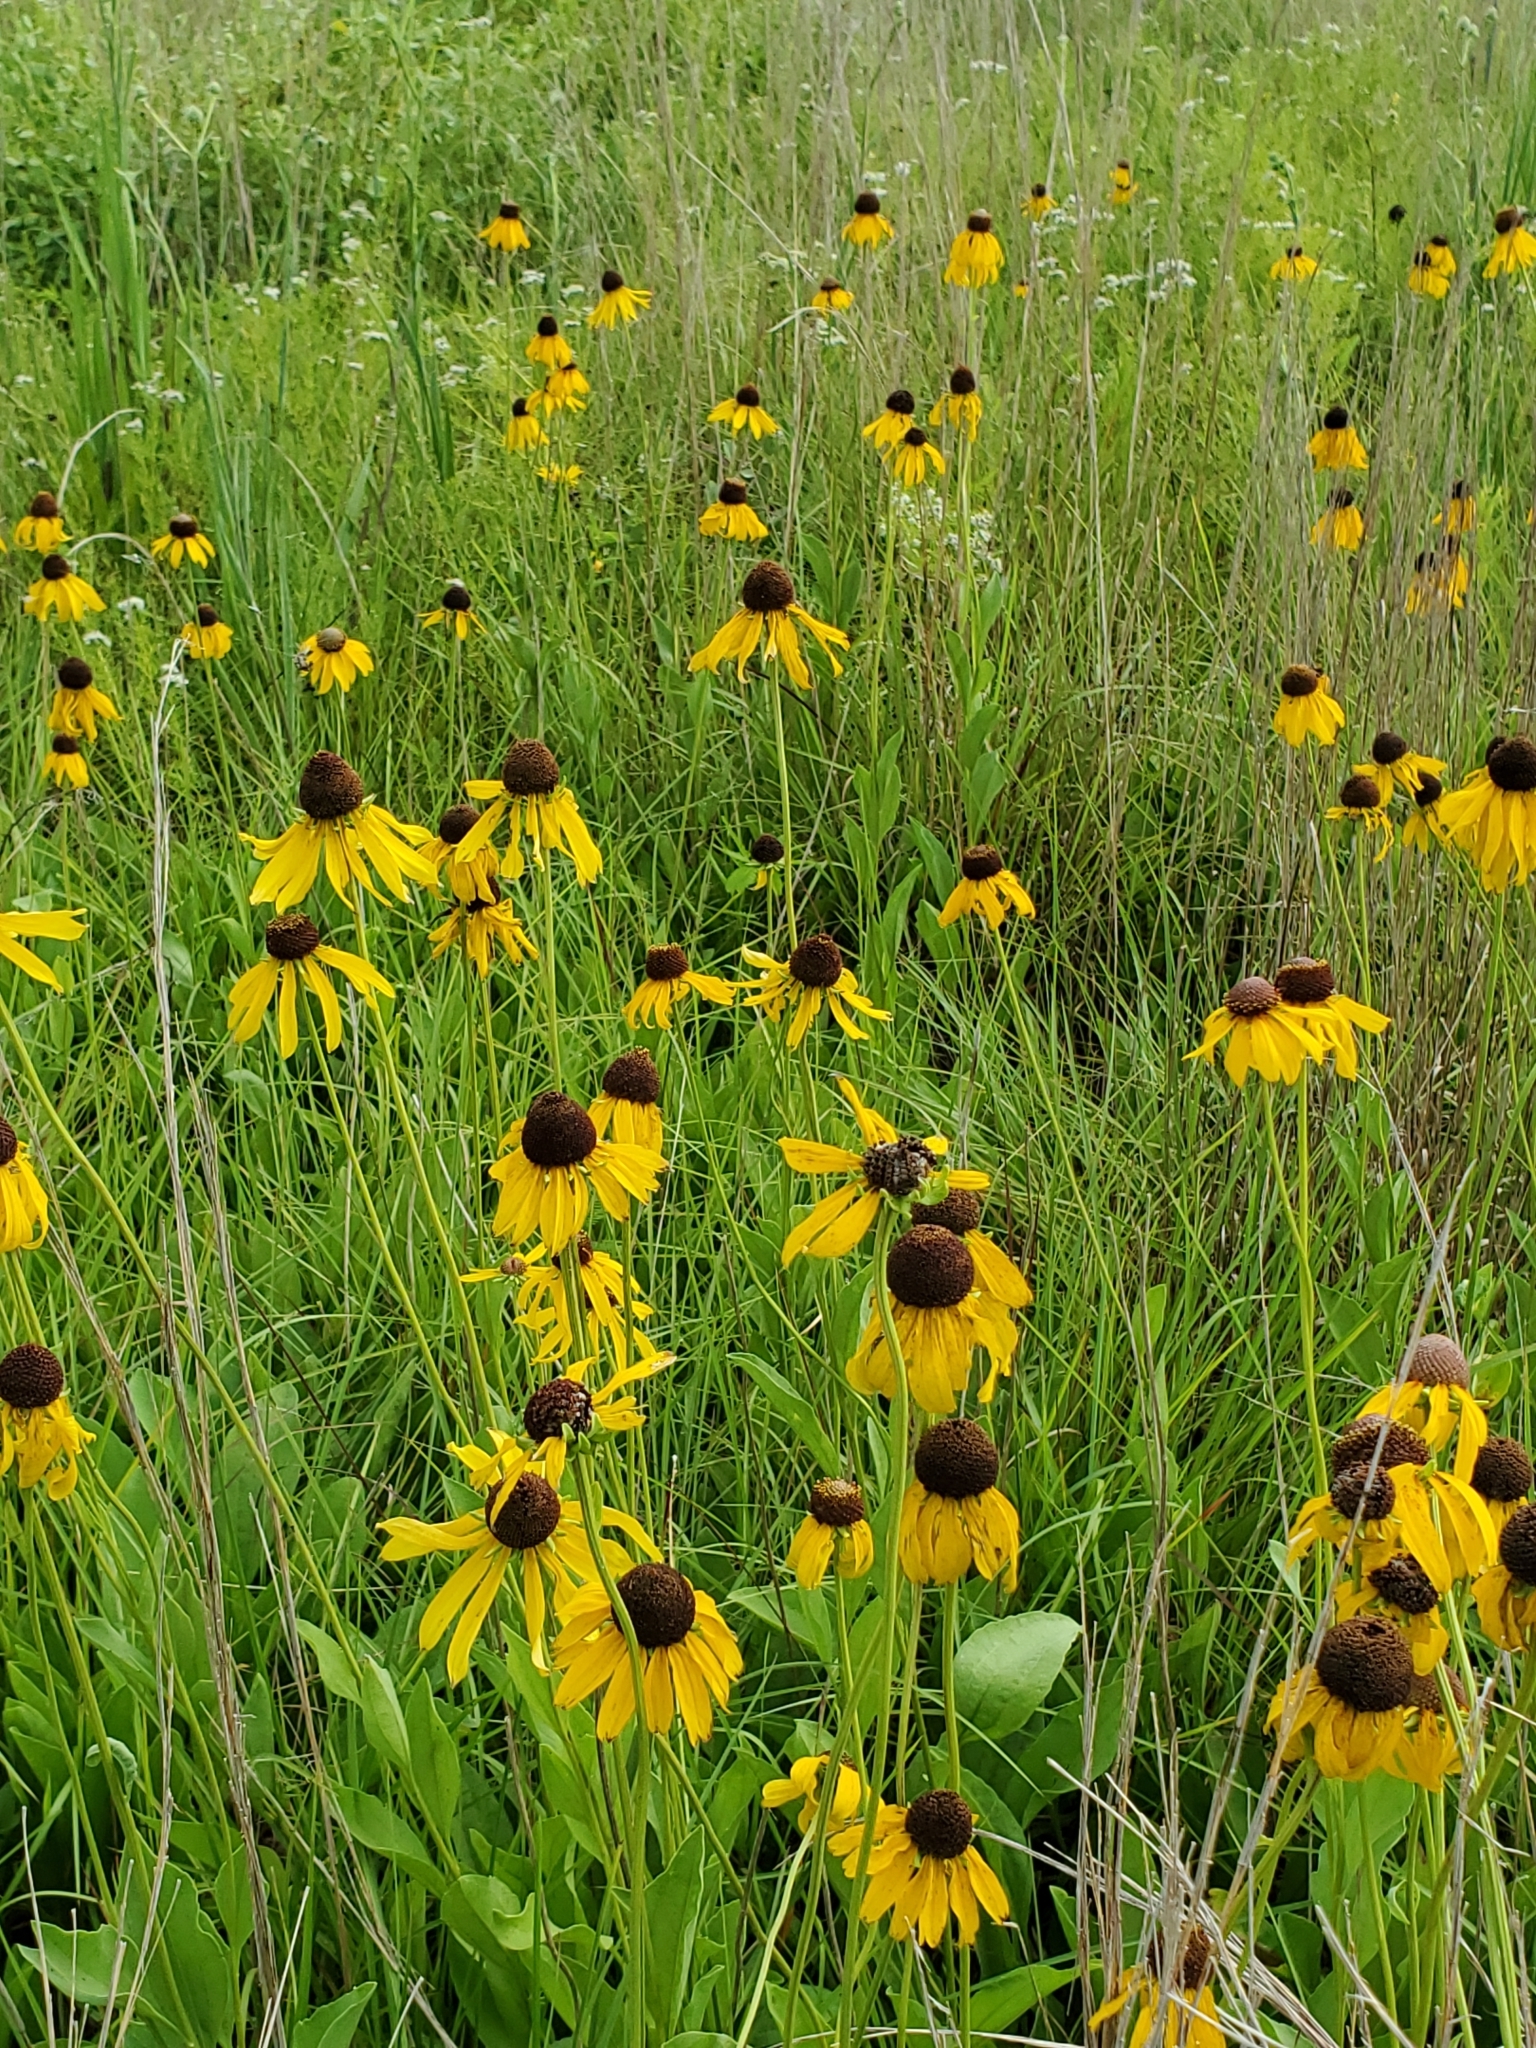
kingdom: Plantae
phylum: Tracheophyta
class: Magnoliopsida
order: Asterales
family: Asteraceae
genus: Rudbeckia
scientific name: Rudbeckia hirta
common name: Black-eyed-susan
